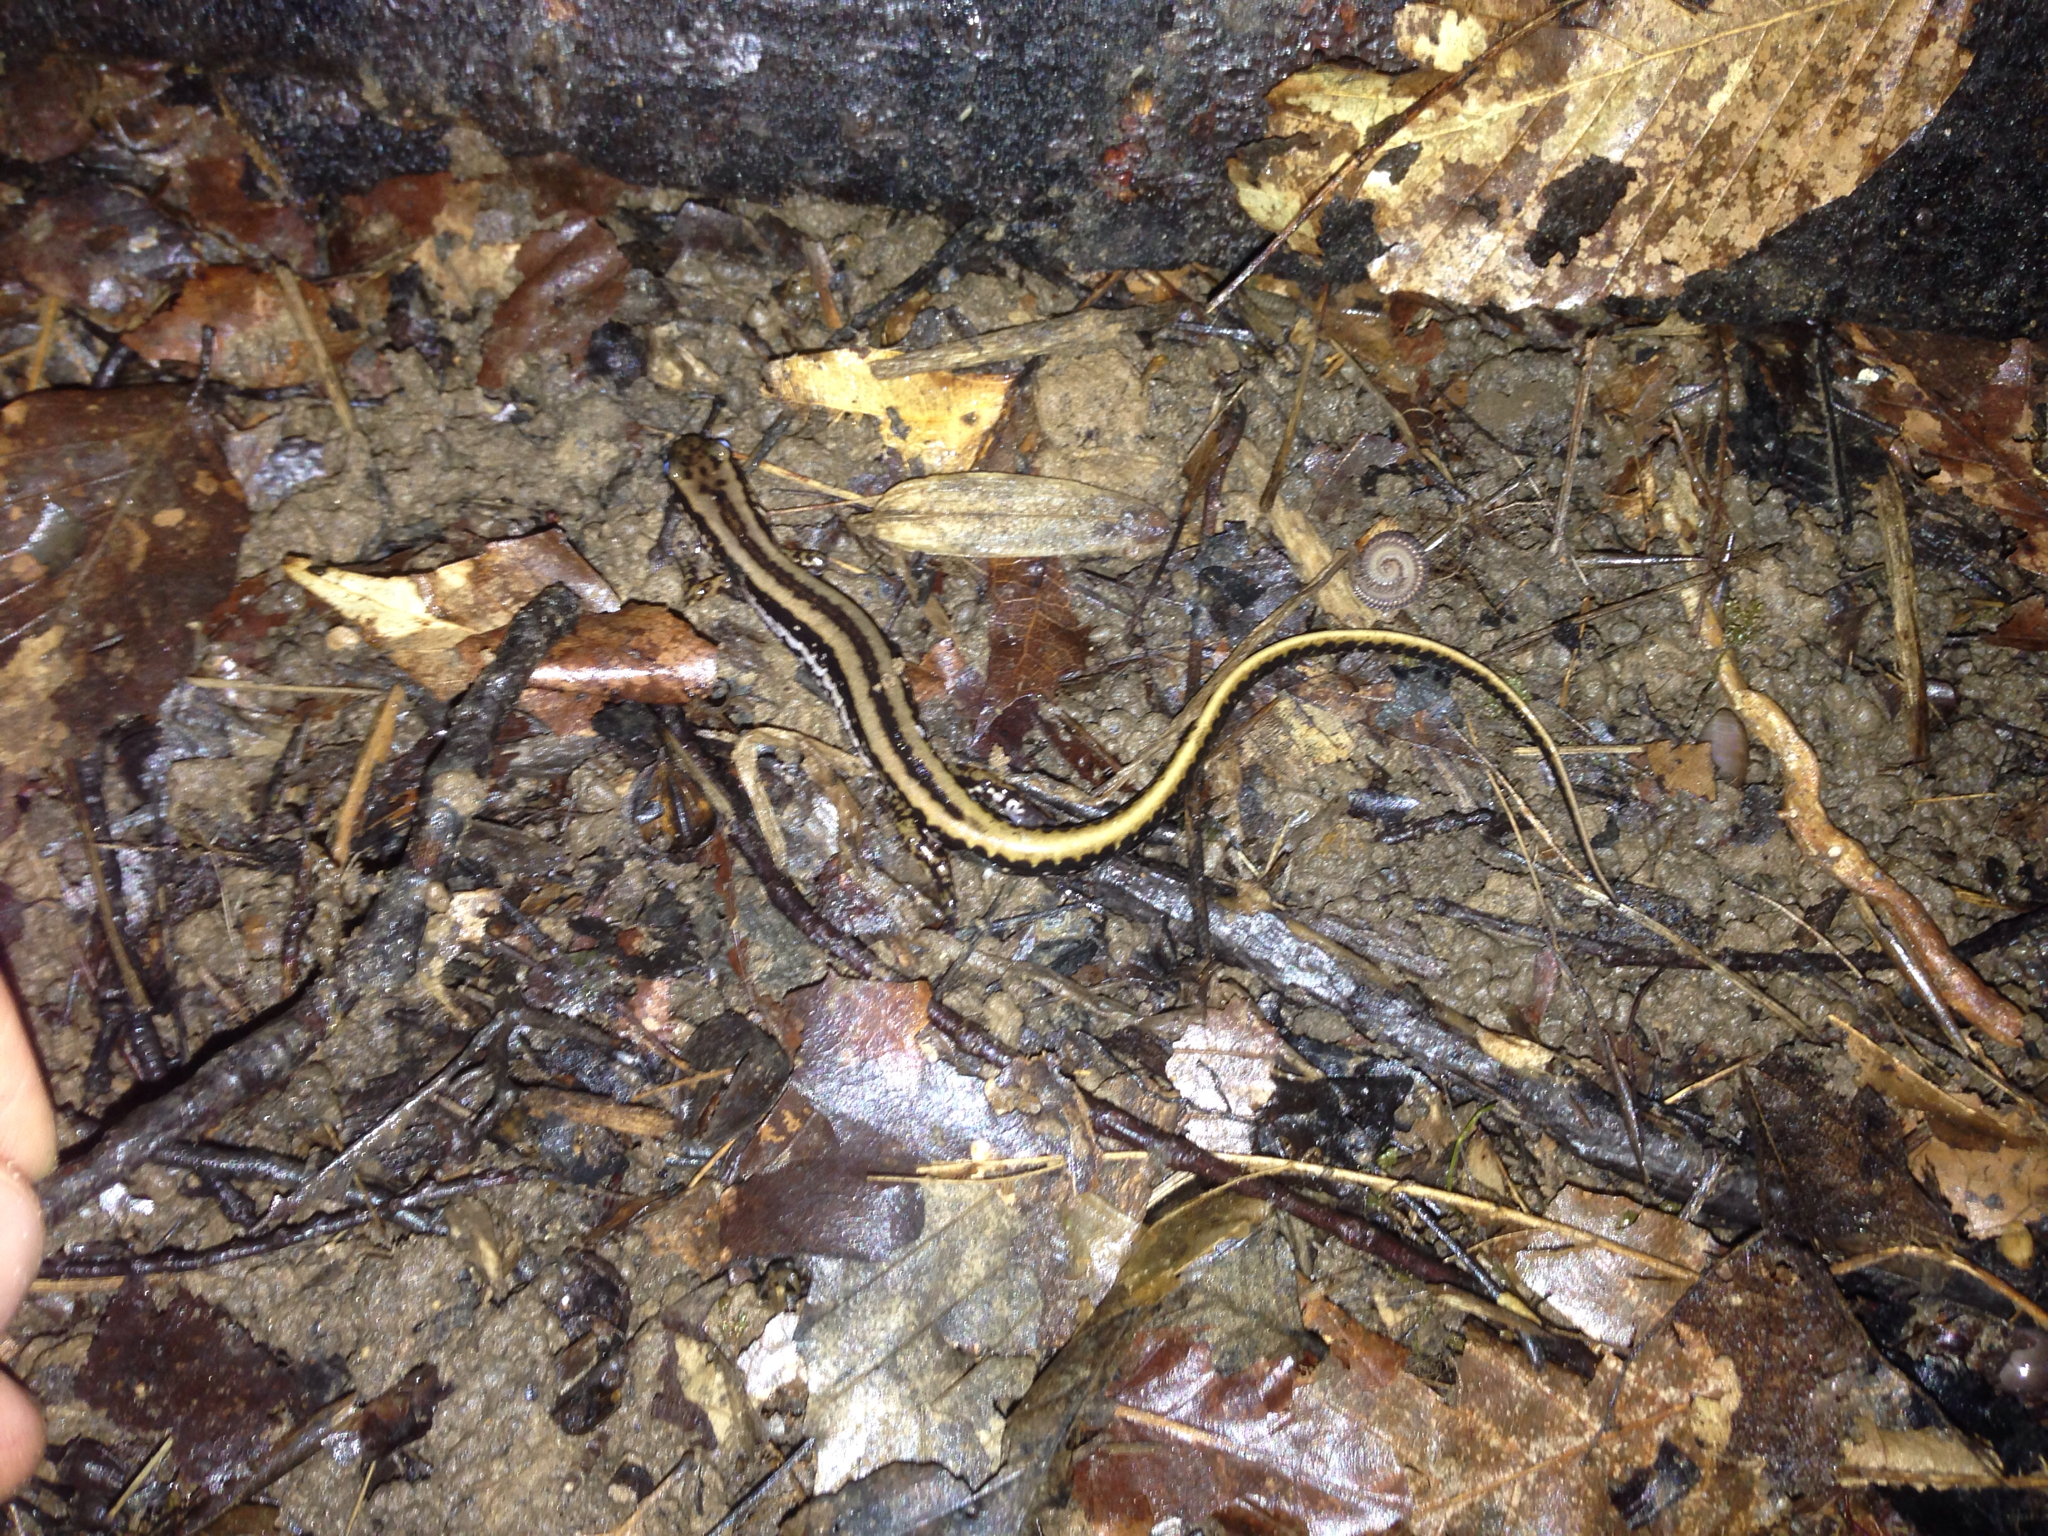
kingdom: Animalia
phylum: Chordata
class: Amphibia
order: Caudata
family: Plethodontidae
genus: Eurycea
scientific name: Eurycea guttolineata
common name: Three-lined salamander
